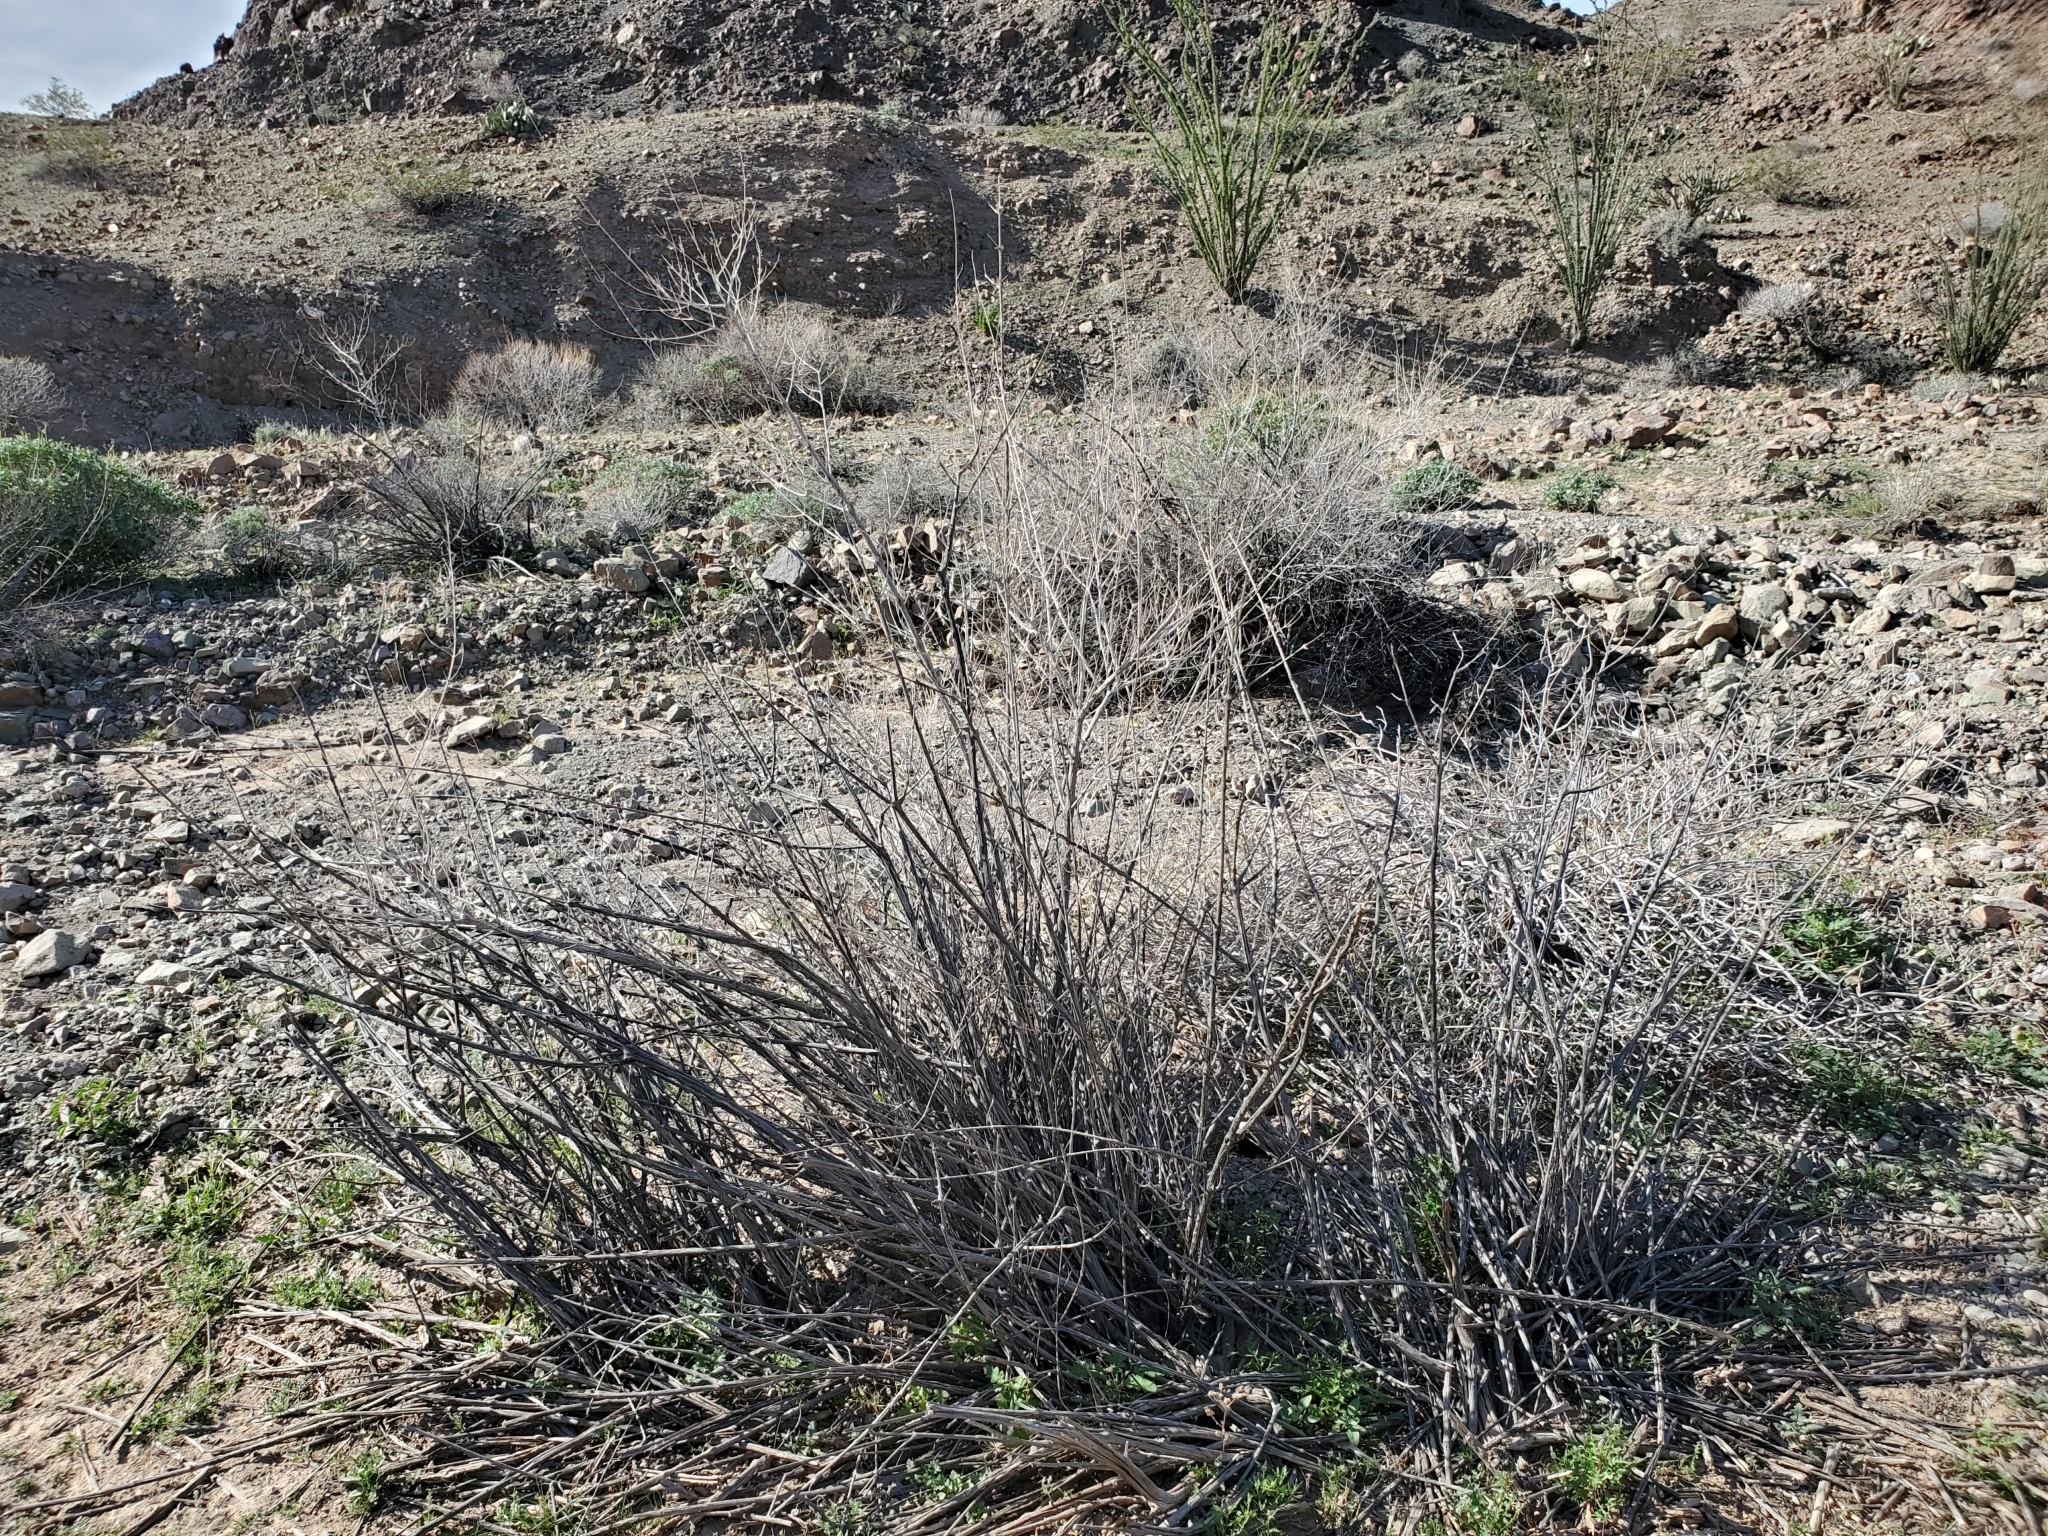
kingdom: Plantae
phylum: Tracheophyta
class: Magnoliopsida
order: Lamiales
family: Lamiaceae
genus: Condea
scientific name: Condea emoryi
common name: Chia
